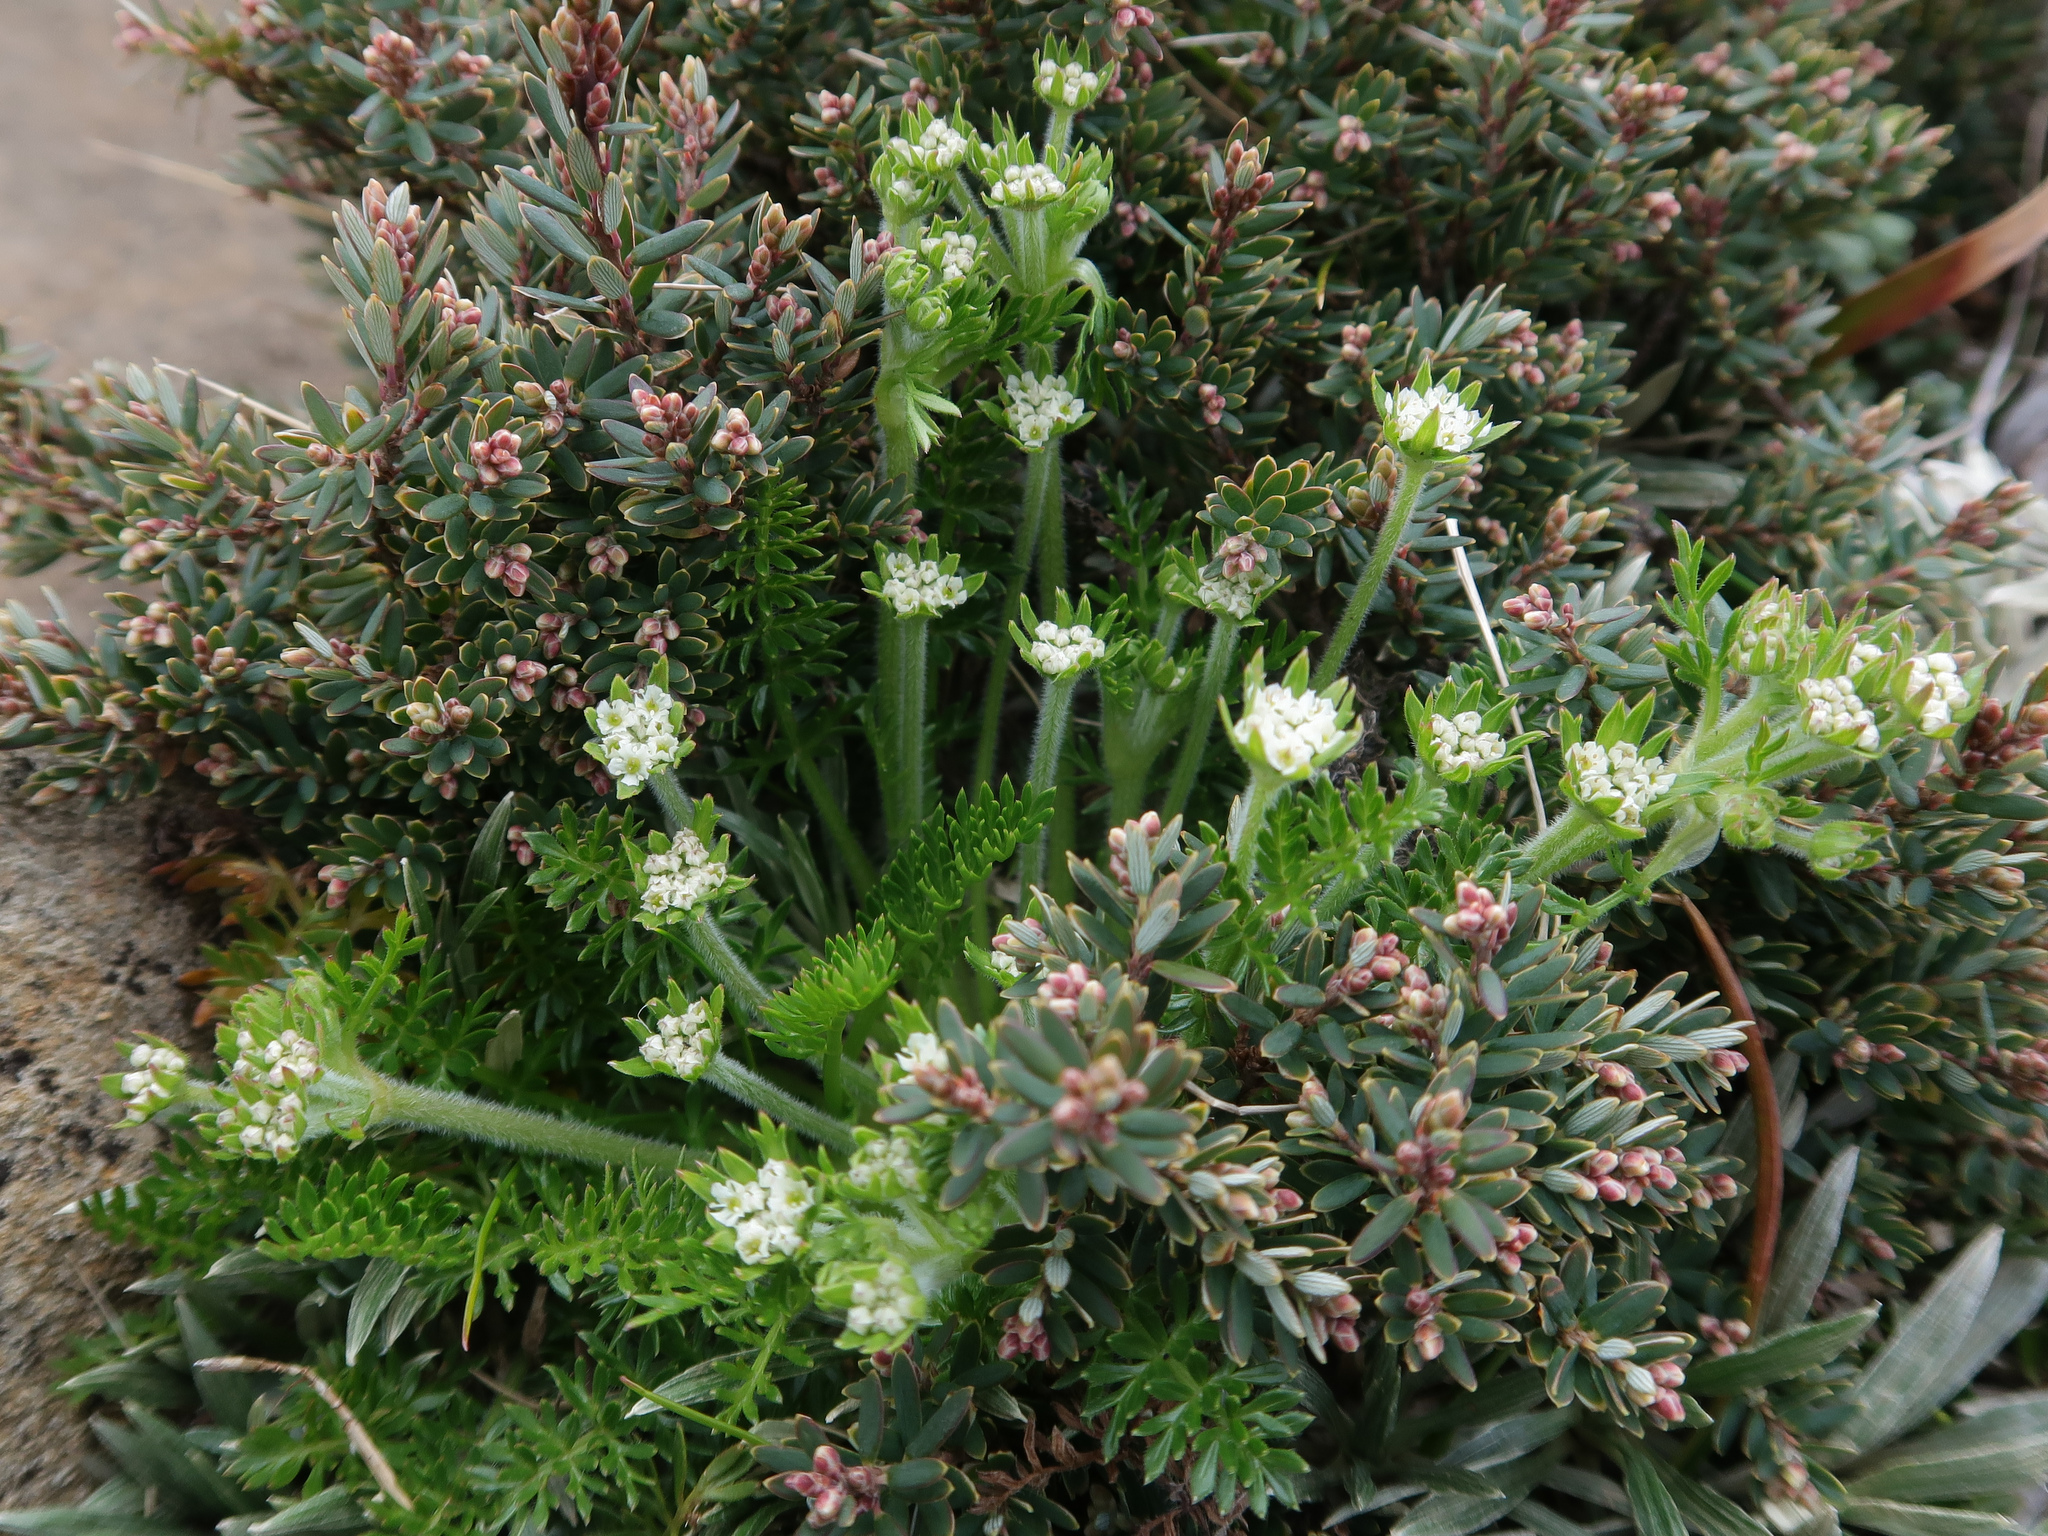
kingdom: Plantae
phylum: Tracheophyta
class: Magnoliopsida
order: Apiales
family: Apiaceae
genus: Chaerophyllum
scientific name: Chaerophyllum sessiliflorum
